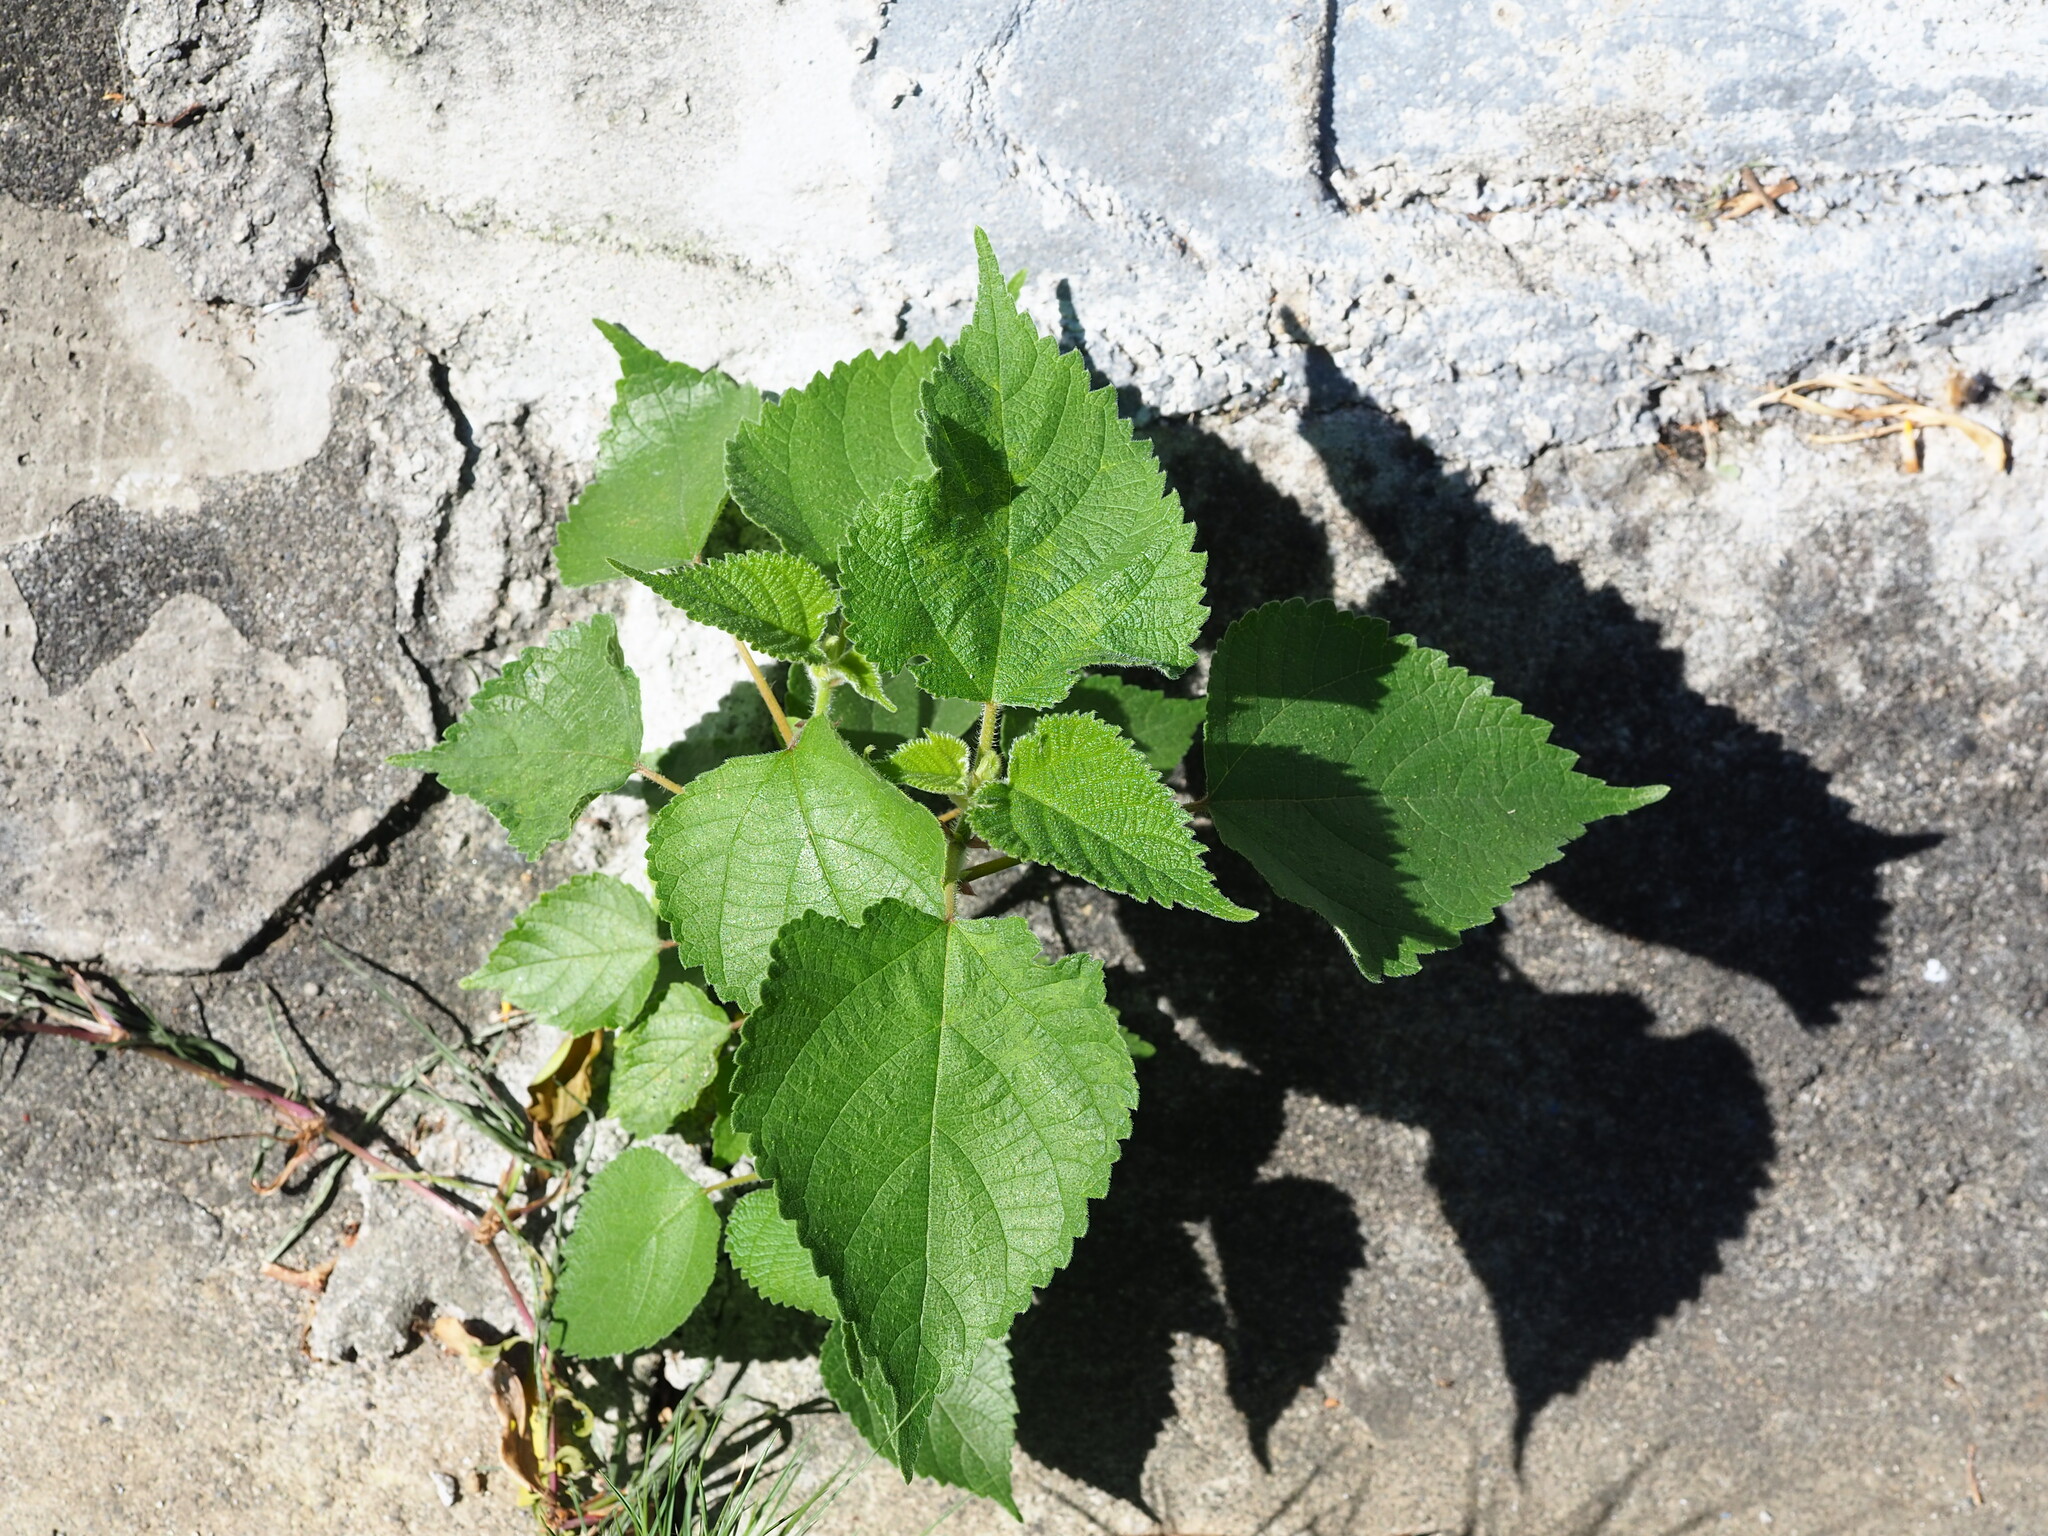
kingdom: Plantae
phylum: Tracheophyta
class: Magnoliopsida
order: Rosales
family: Moraceae
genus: Broussonetia
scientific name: Broussonetia papyrifera
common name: Paper mulberry
